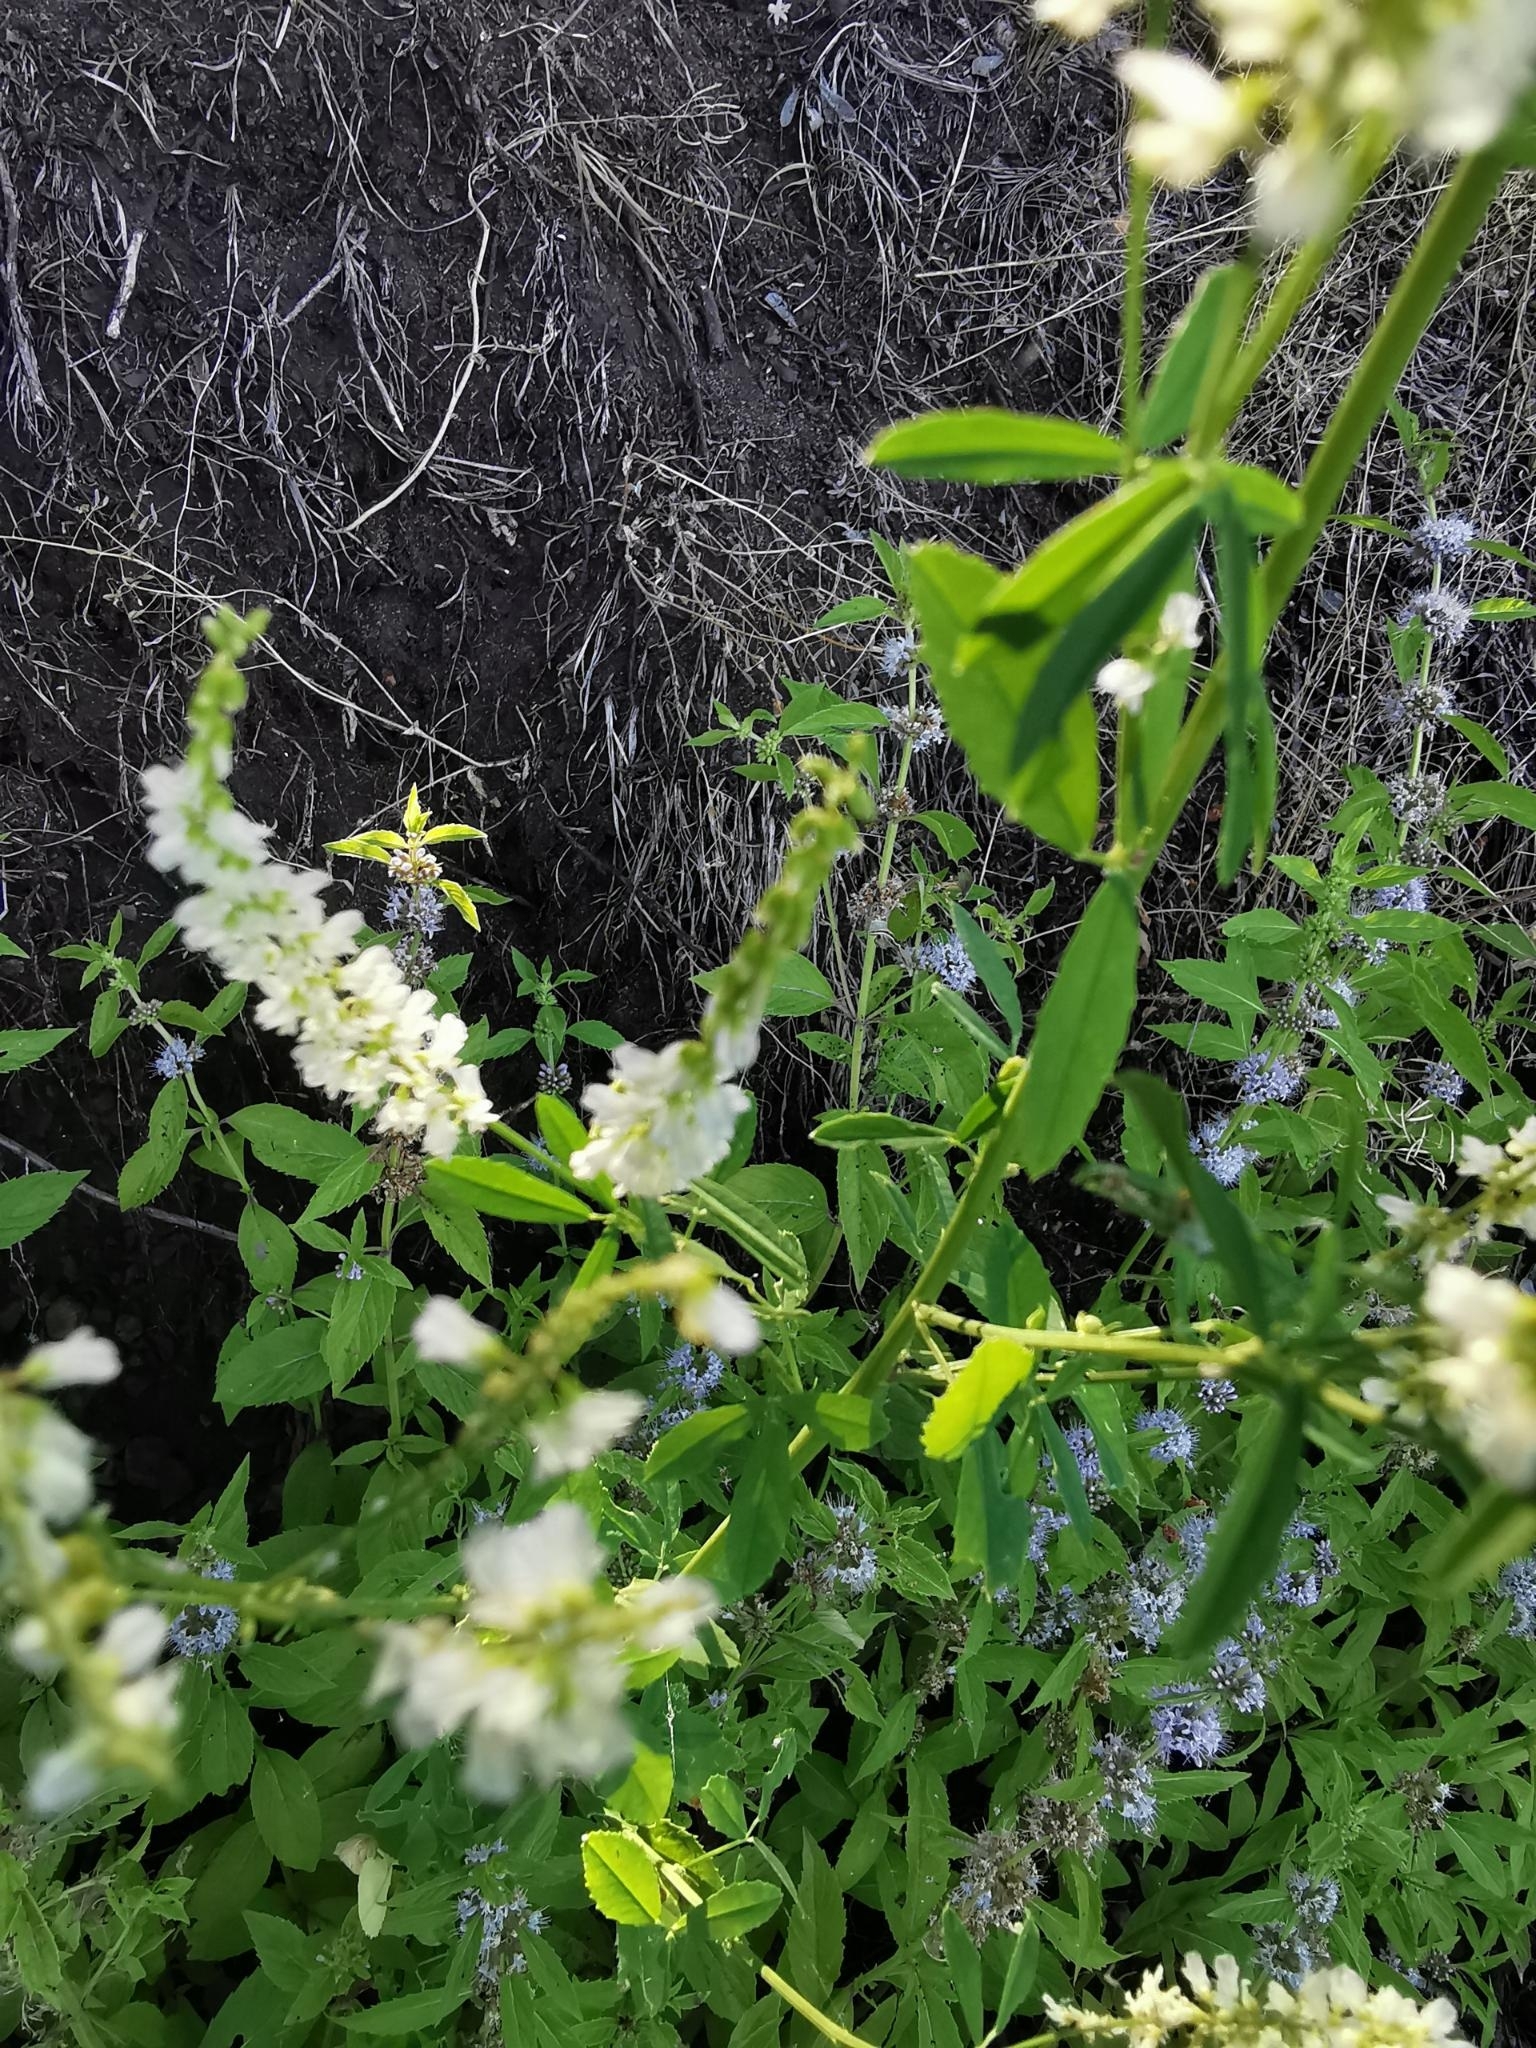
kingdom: Plantae
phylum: Tracheophyta
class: Magnoliopsida
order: Fabales
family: Fabaceae
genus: Melilotus
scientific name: Melilotus albus
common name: White melilot
